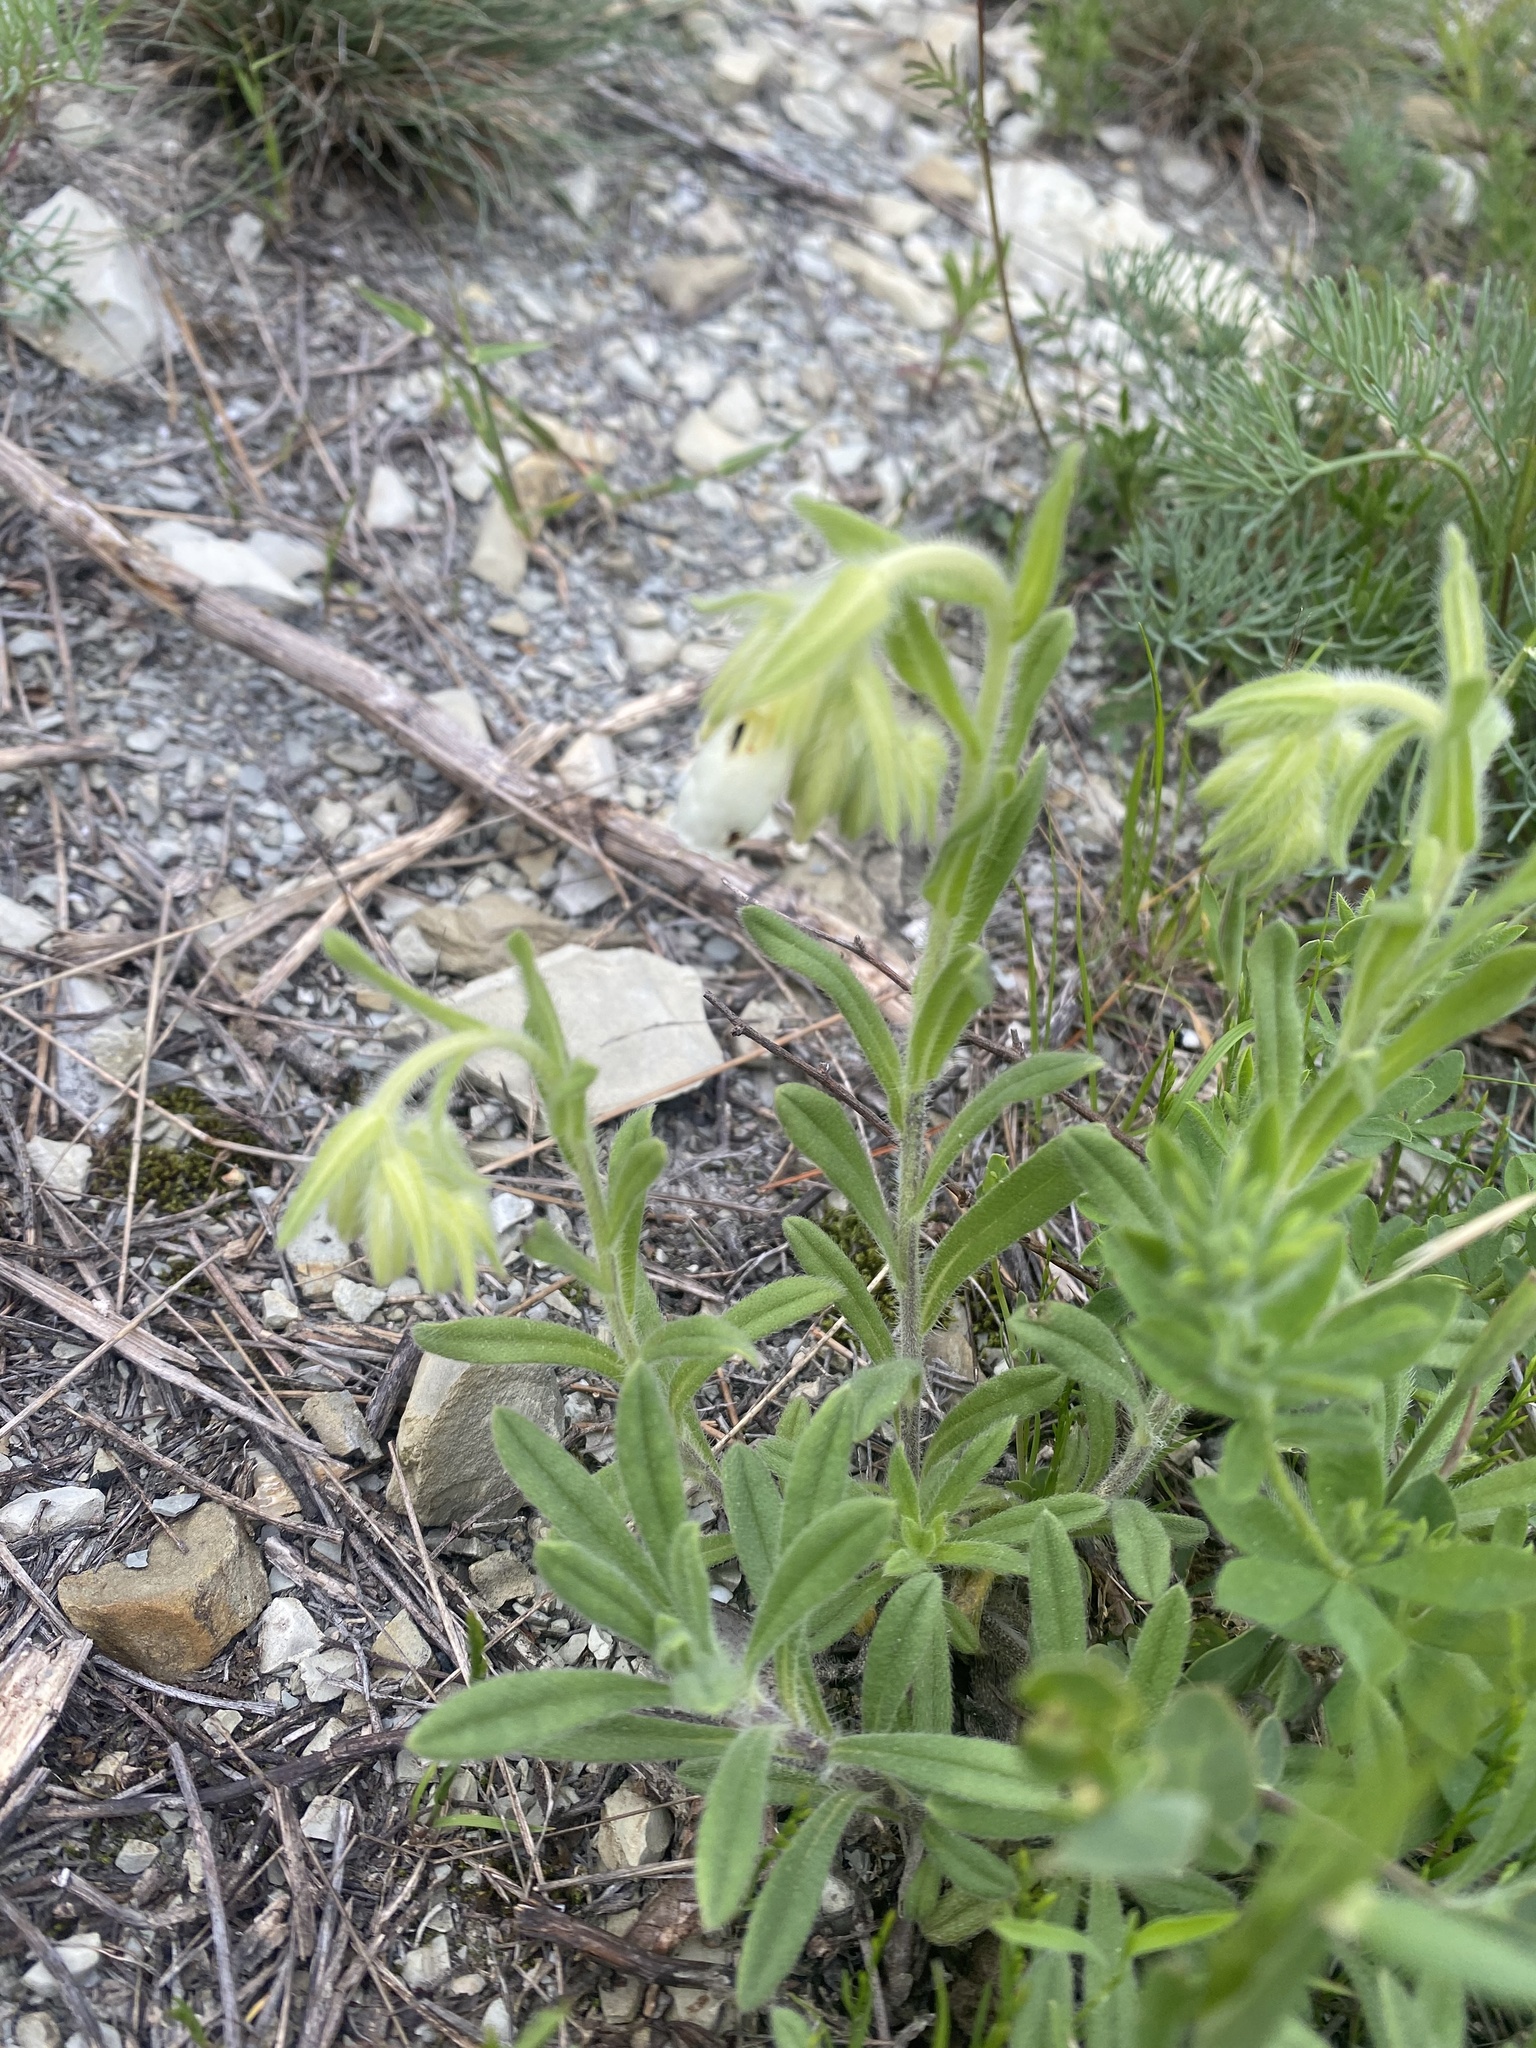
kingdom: Plantae
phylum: Tracheophyta
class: Magnoliopsida
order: Boraginales
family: Boraginaceae
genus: Onosma
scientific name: Onosma aucheriana
